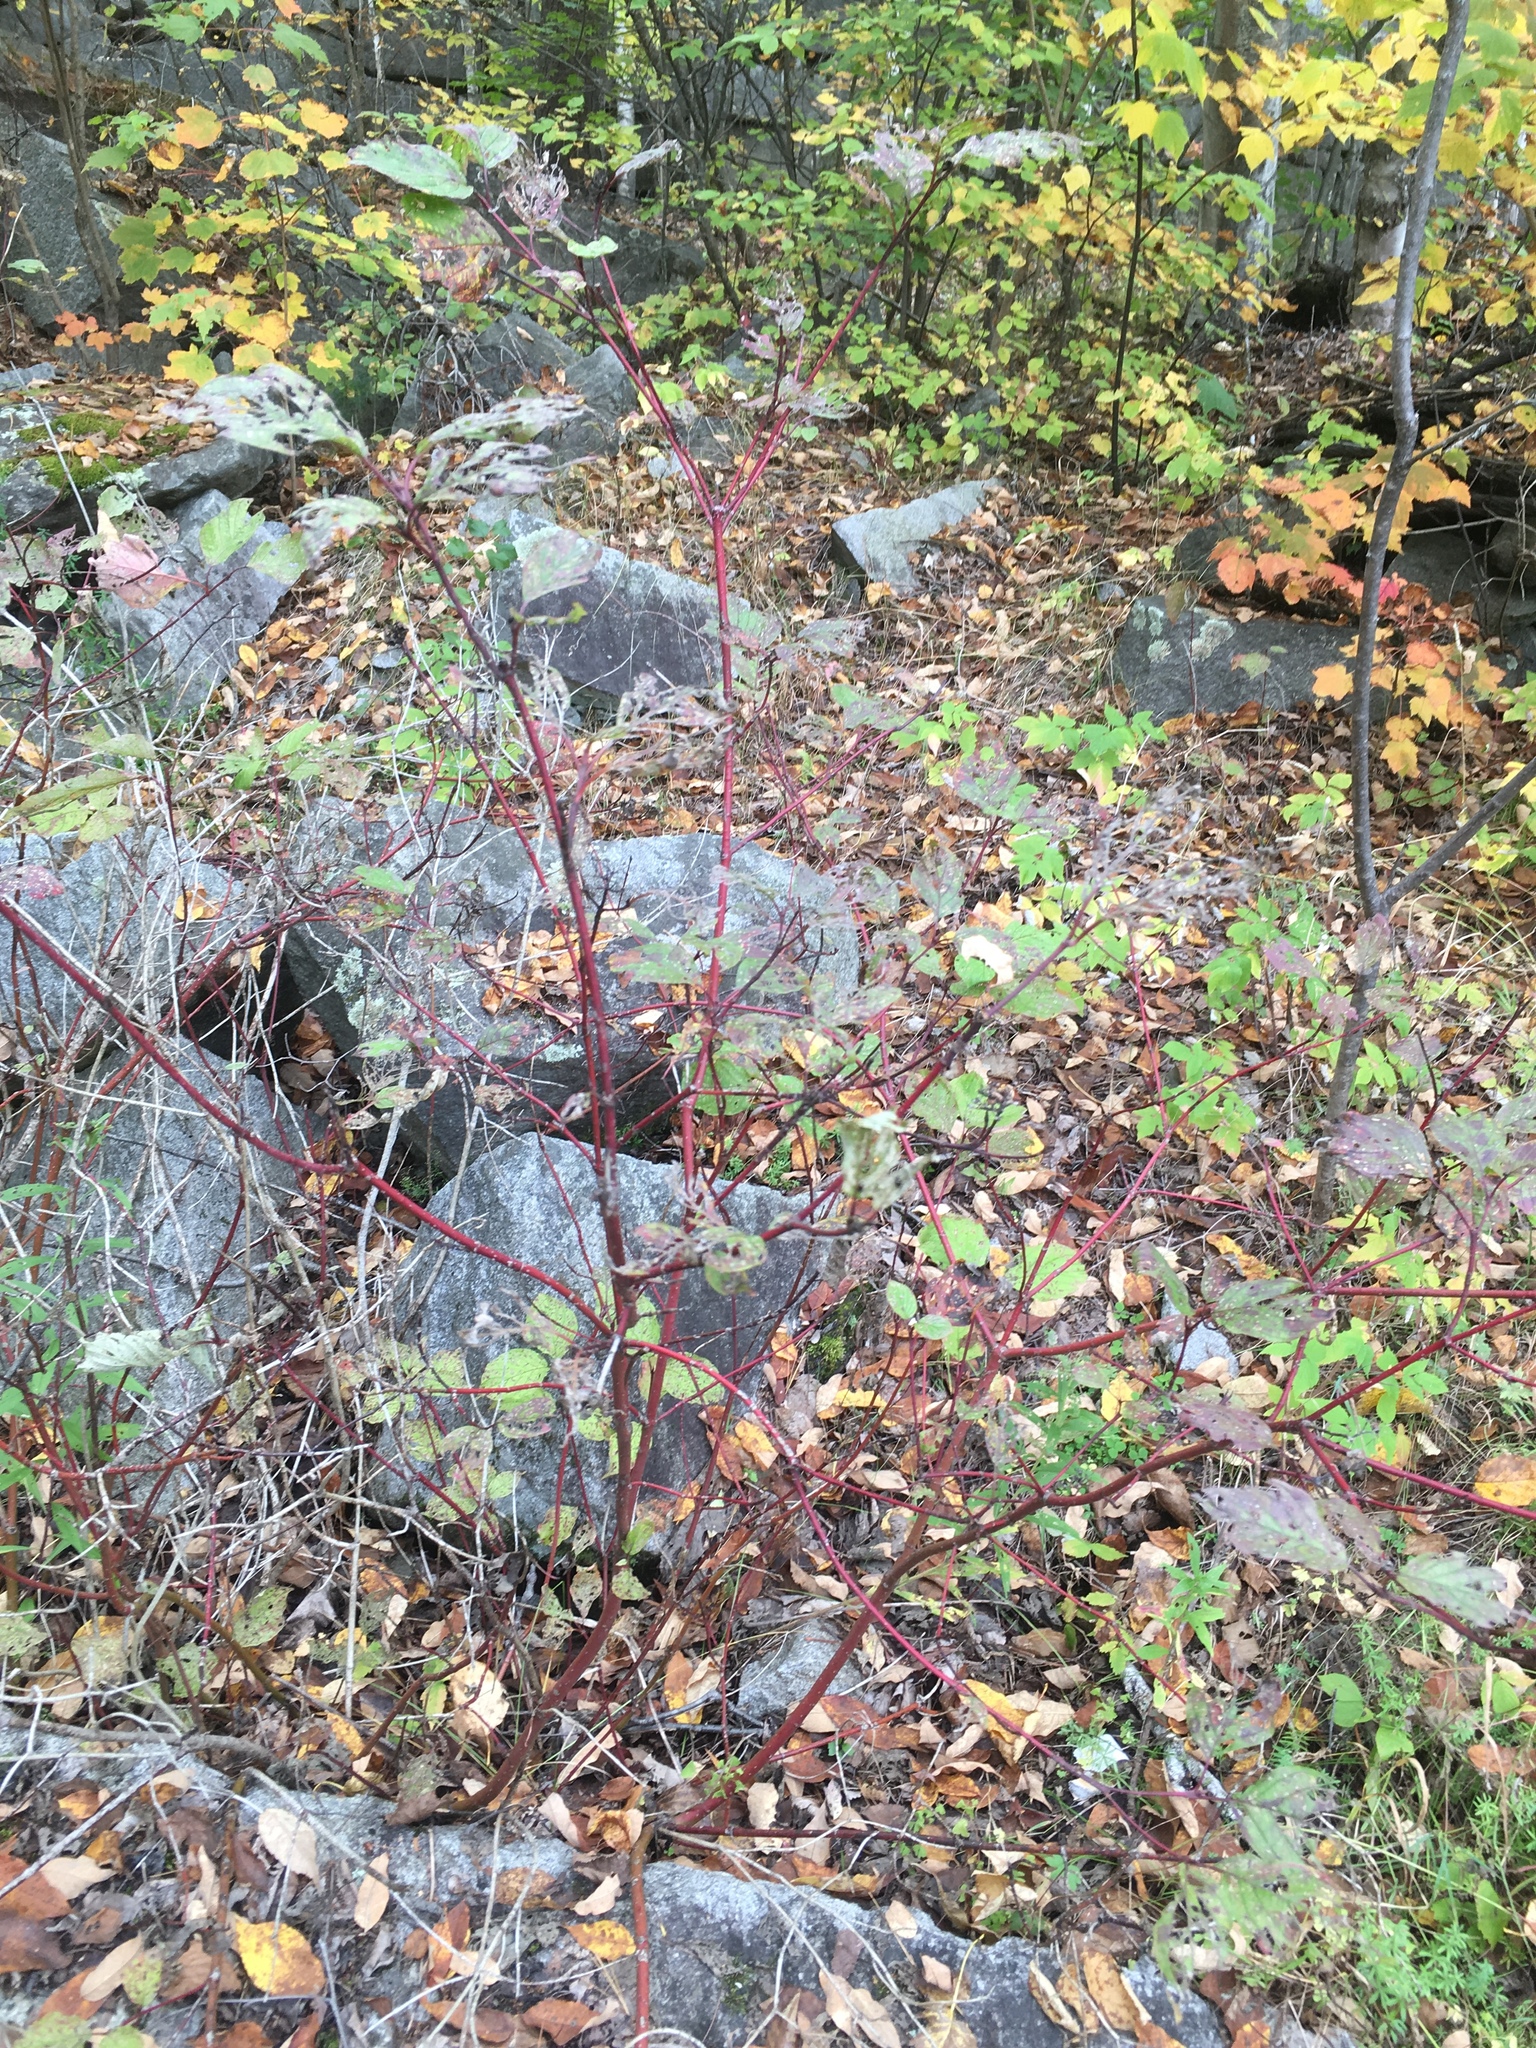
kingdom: Plantae
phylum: Tracheophyta
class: Magnoliopsida
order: Cornales
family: Cornaceae
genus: Cornus
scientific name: Cornus sericea
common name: Red-osier dogwood
